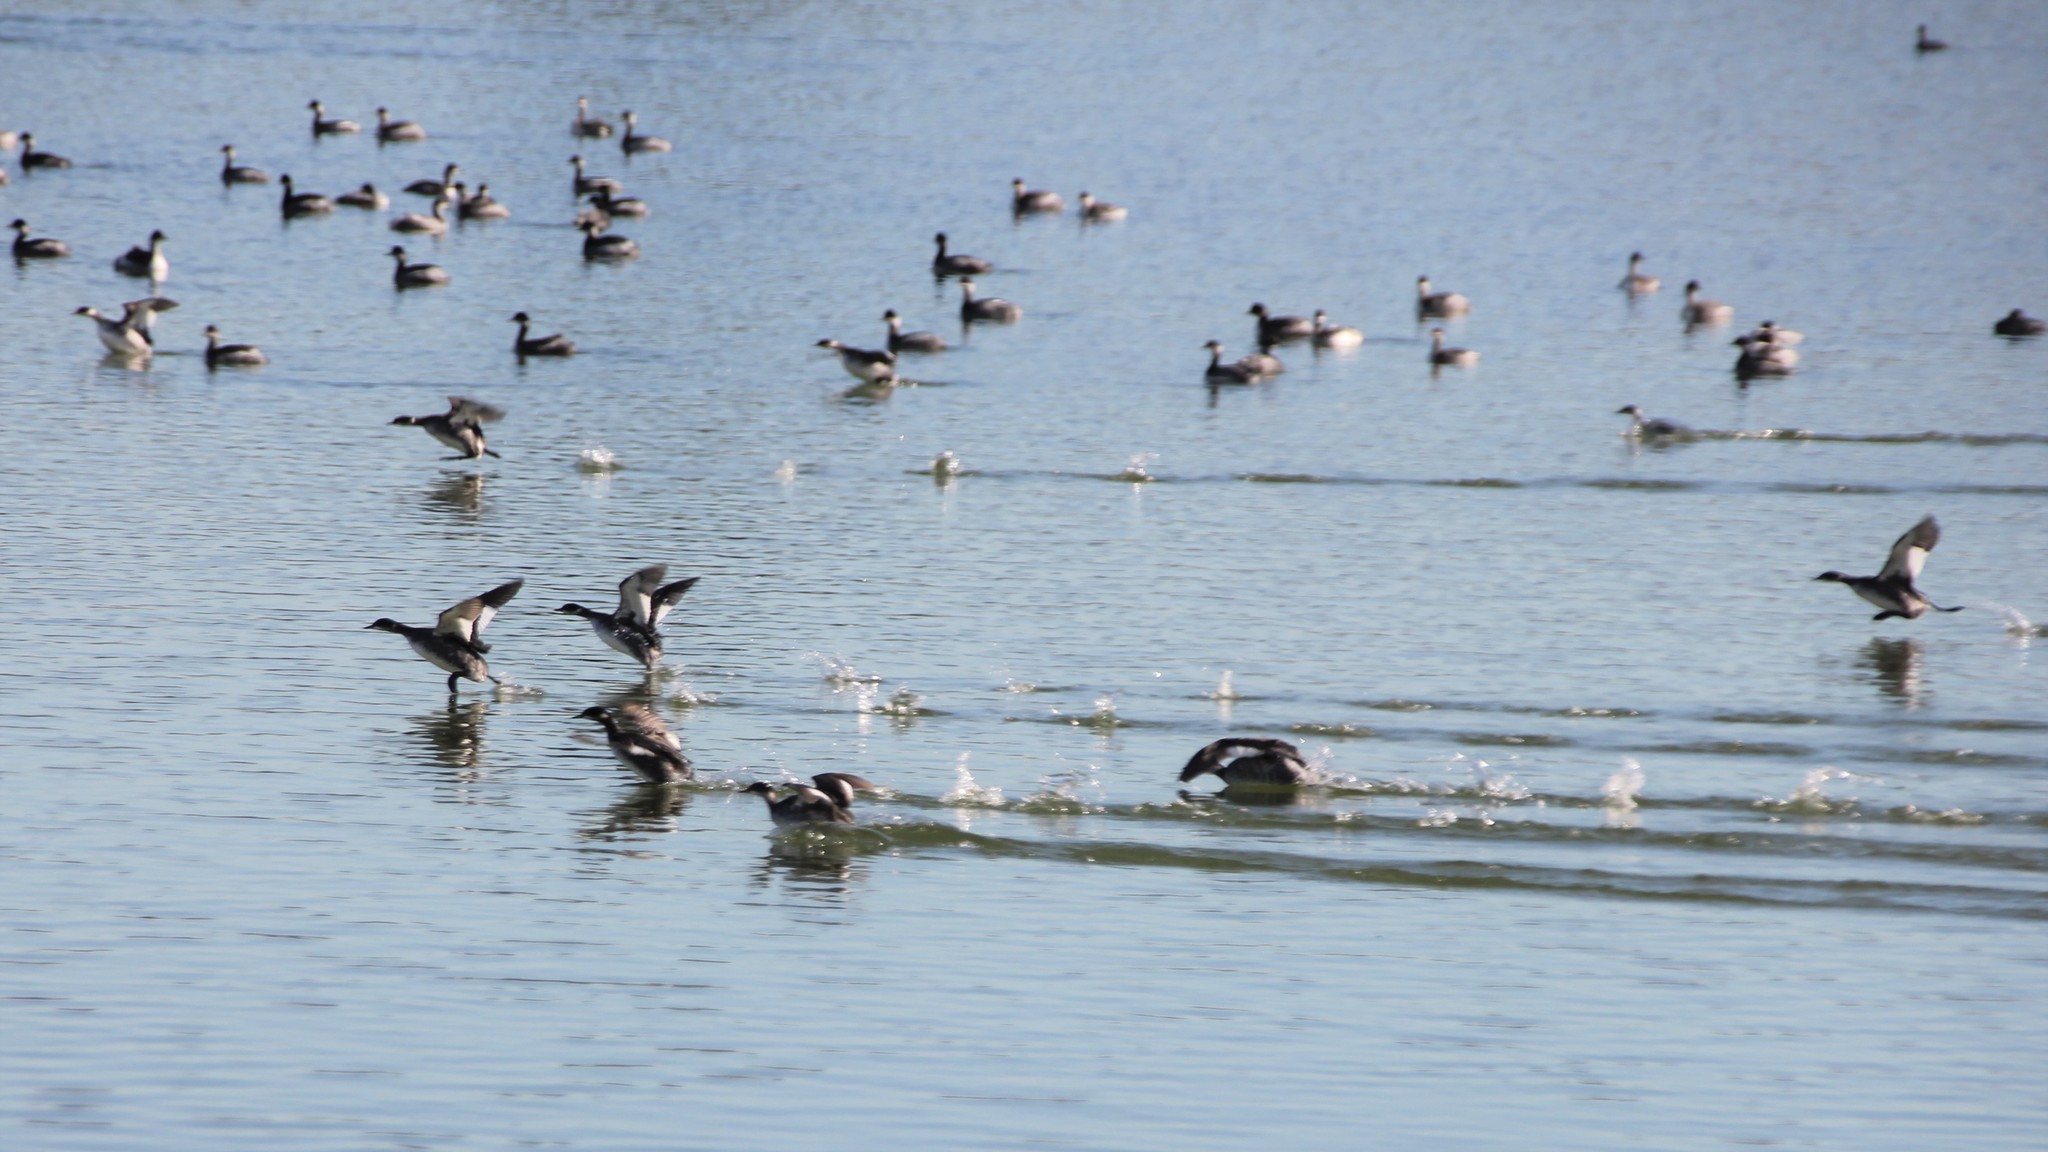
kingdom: Animalia
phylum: Chordata
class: Aves
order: Podicipediformes
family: Podicipedidae
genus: Podiceps
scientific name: Podiceps nigricollis
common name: Black-necked grebe
